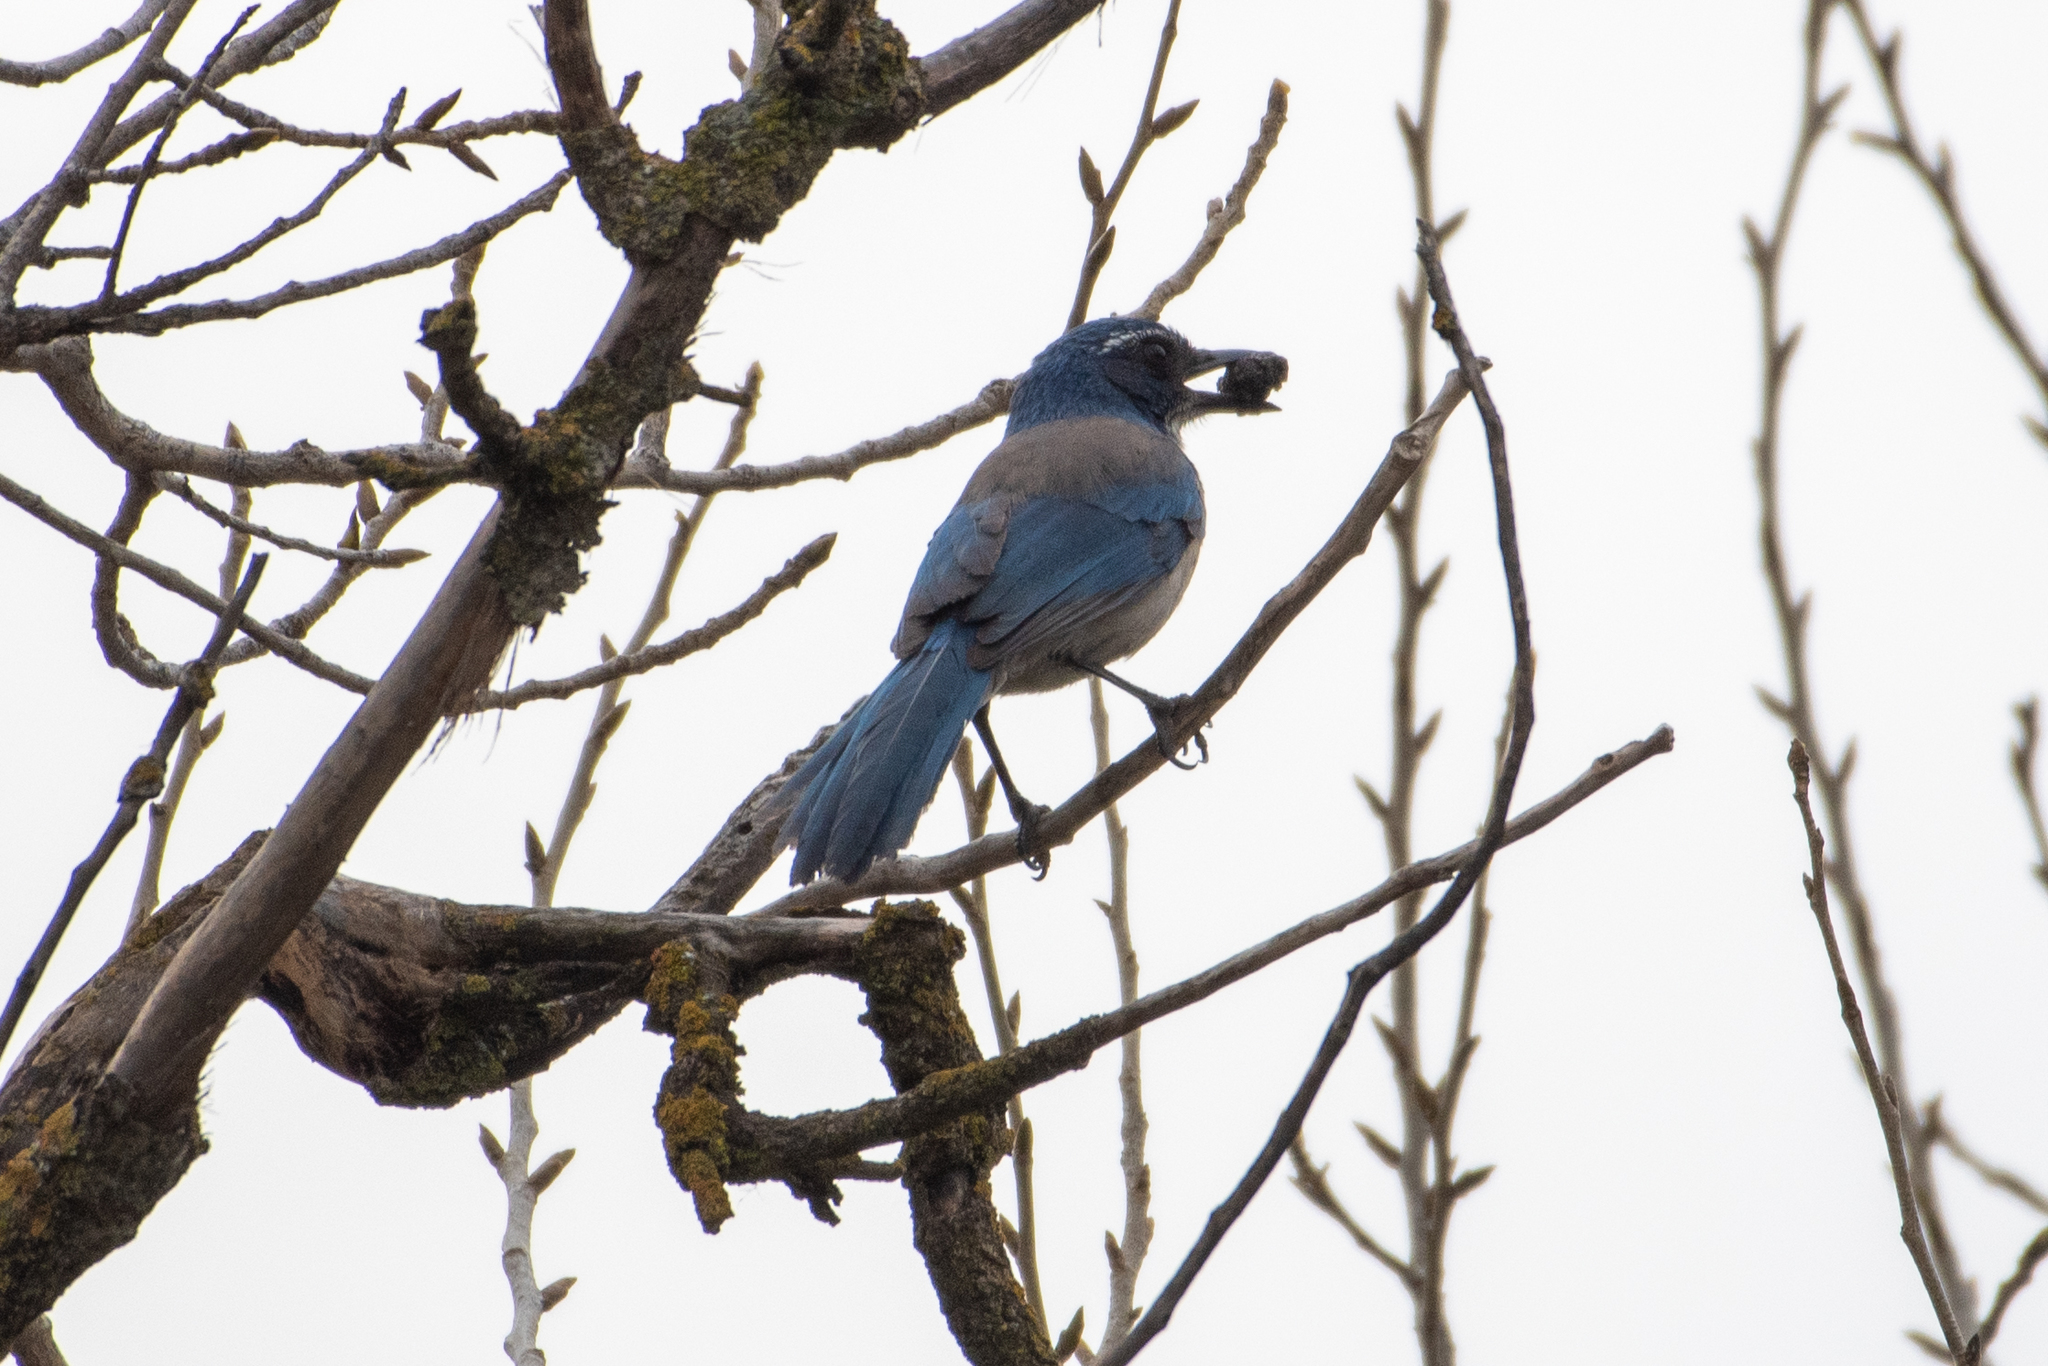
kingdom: Animalia
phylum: Chordata
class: Aves
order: Passeriformes
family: Corvidae
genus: Aphelocoma
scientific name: Aphelocoma californica
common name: California scrub-jay
